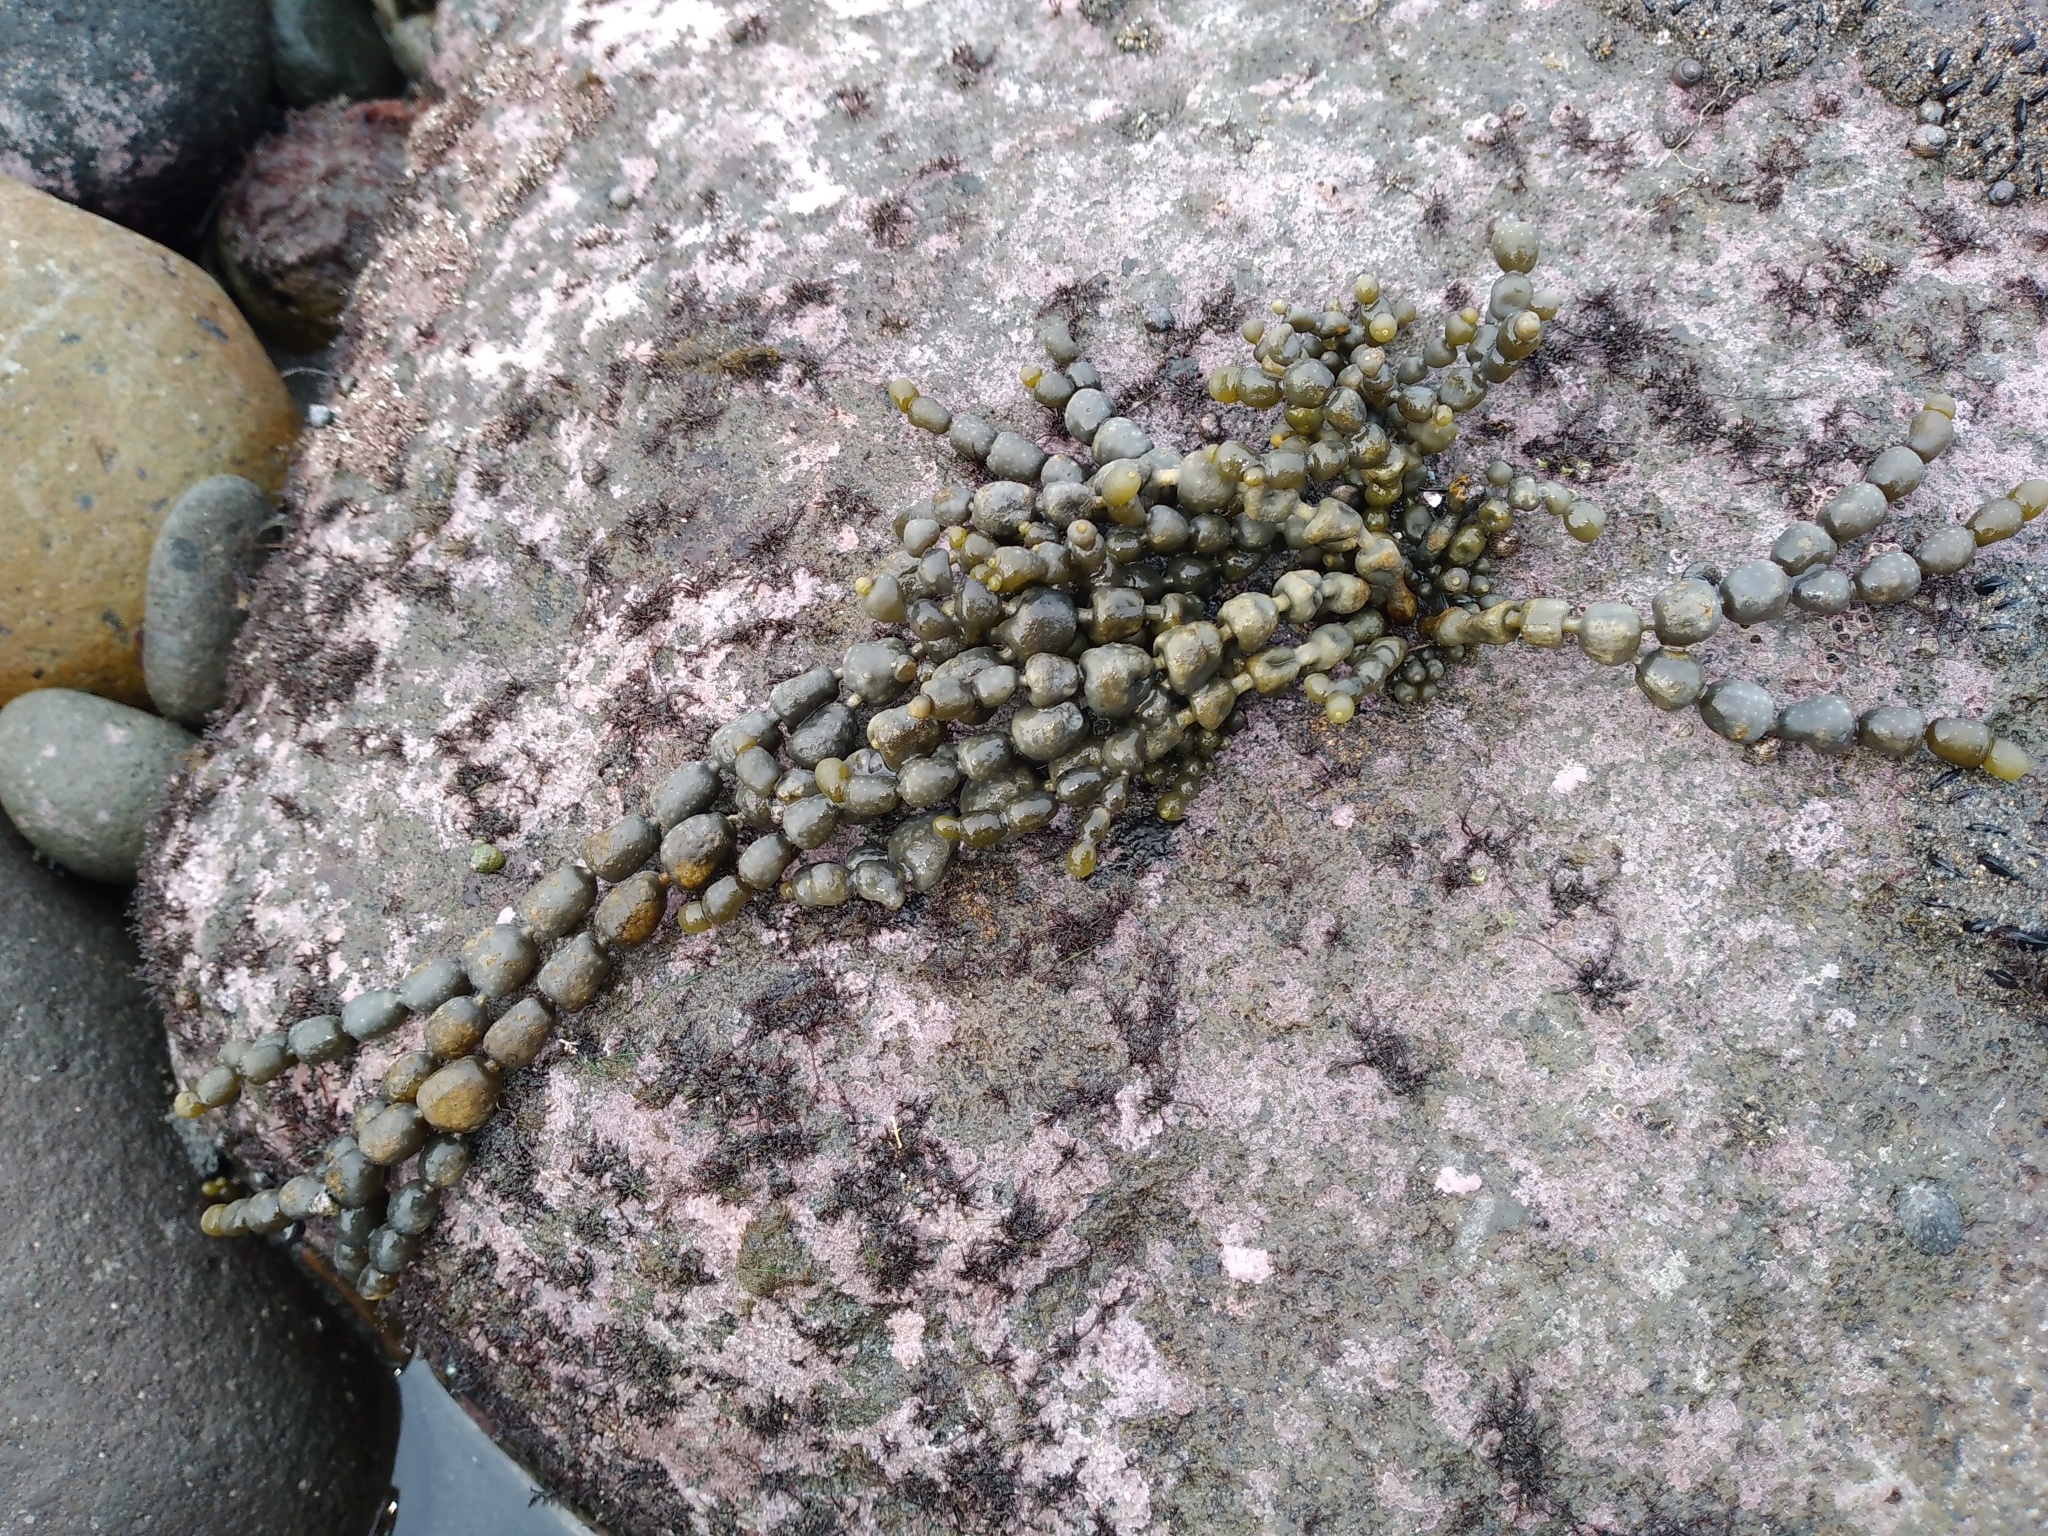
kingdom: Chromista
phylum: Ochrophyta
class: Phaeophyceae
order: Fucales
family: Hormosiraceae
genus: Hormosira
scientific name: Hormosira banksii
